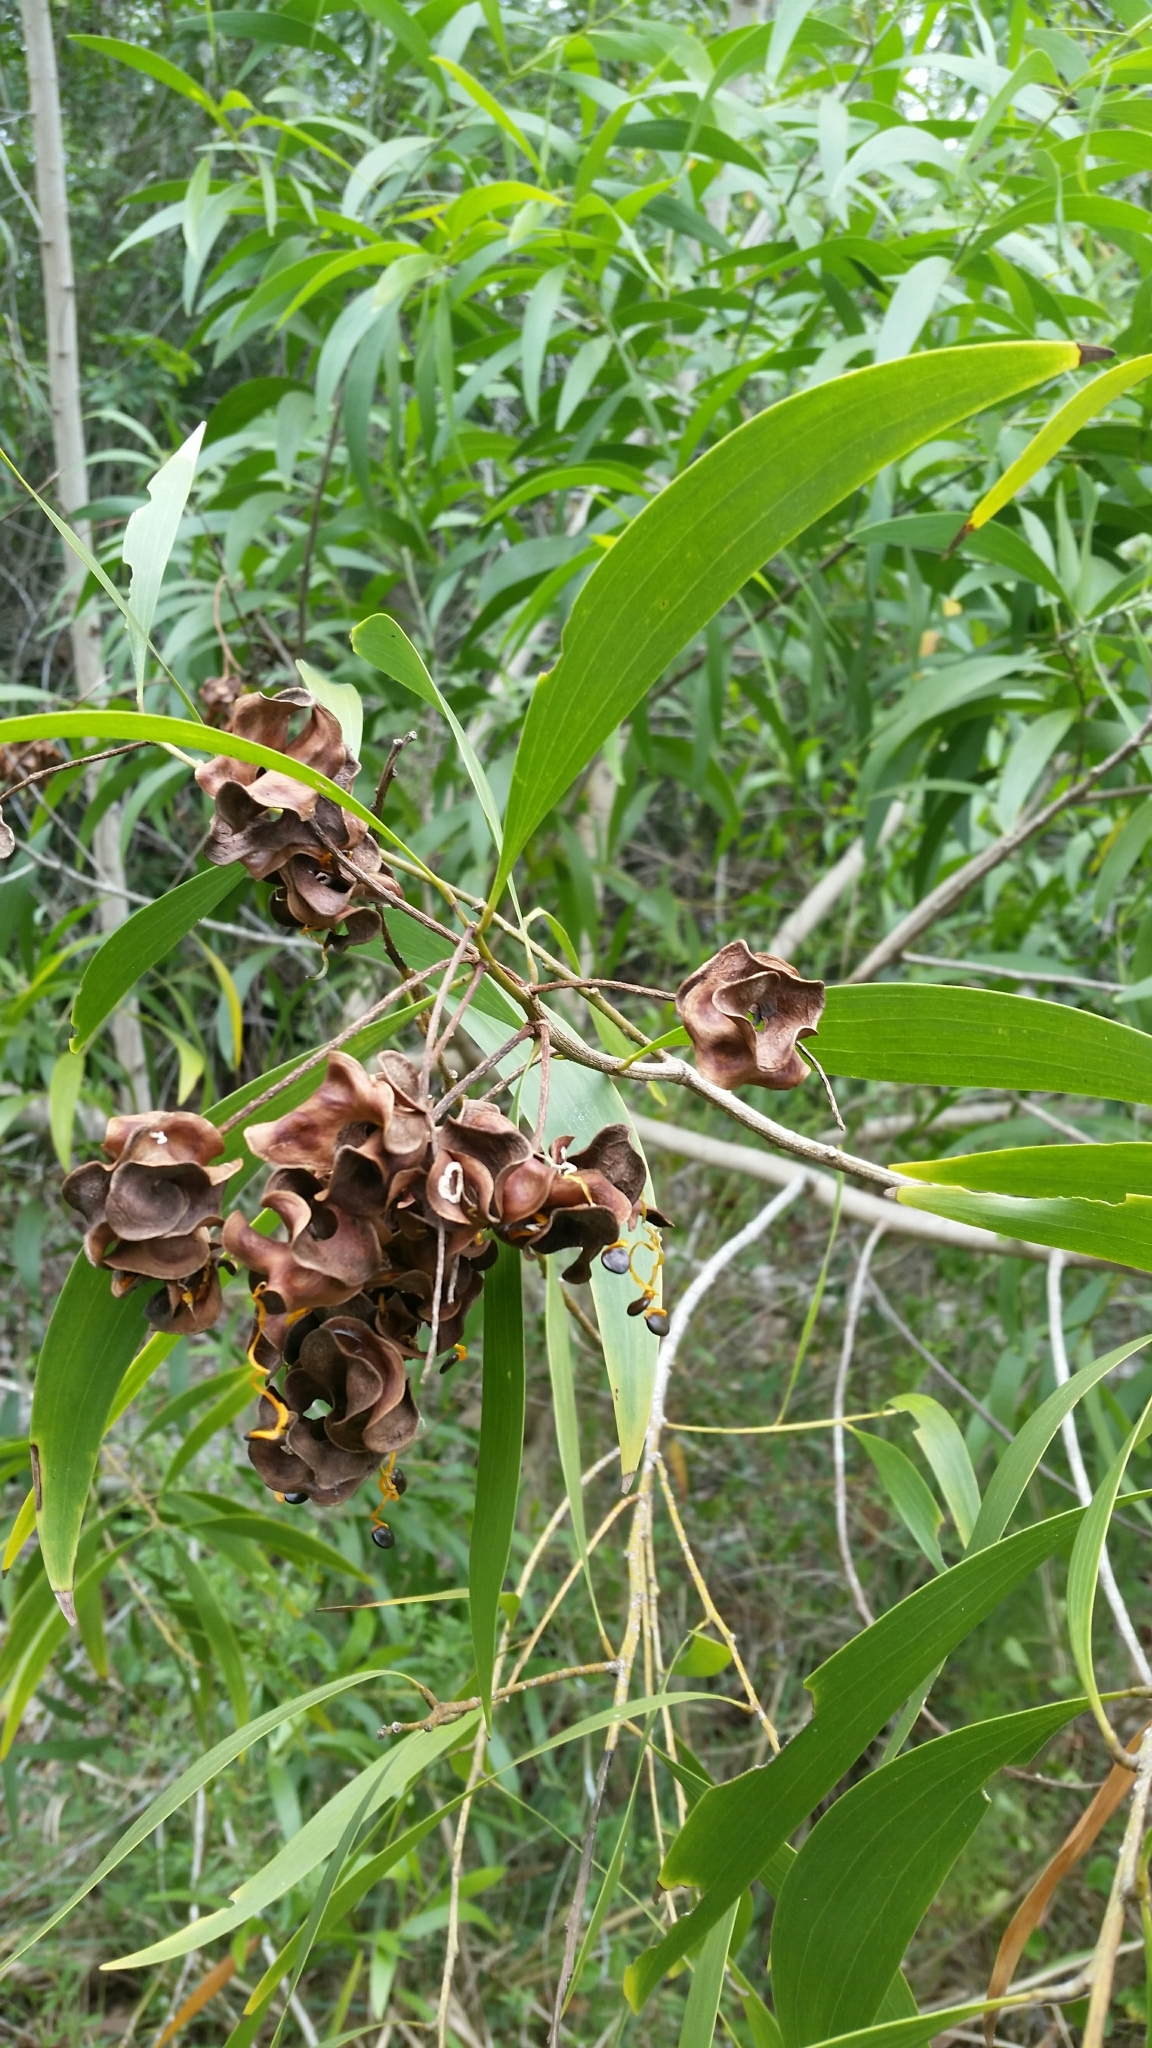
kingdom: Plantae
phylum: Tracheophyta
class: Magnoliopsida
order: Fabales
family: Fabaceae
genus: Acacia
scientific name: Acacia auriculiformis
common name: Earleaf acacia
